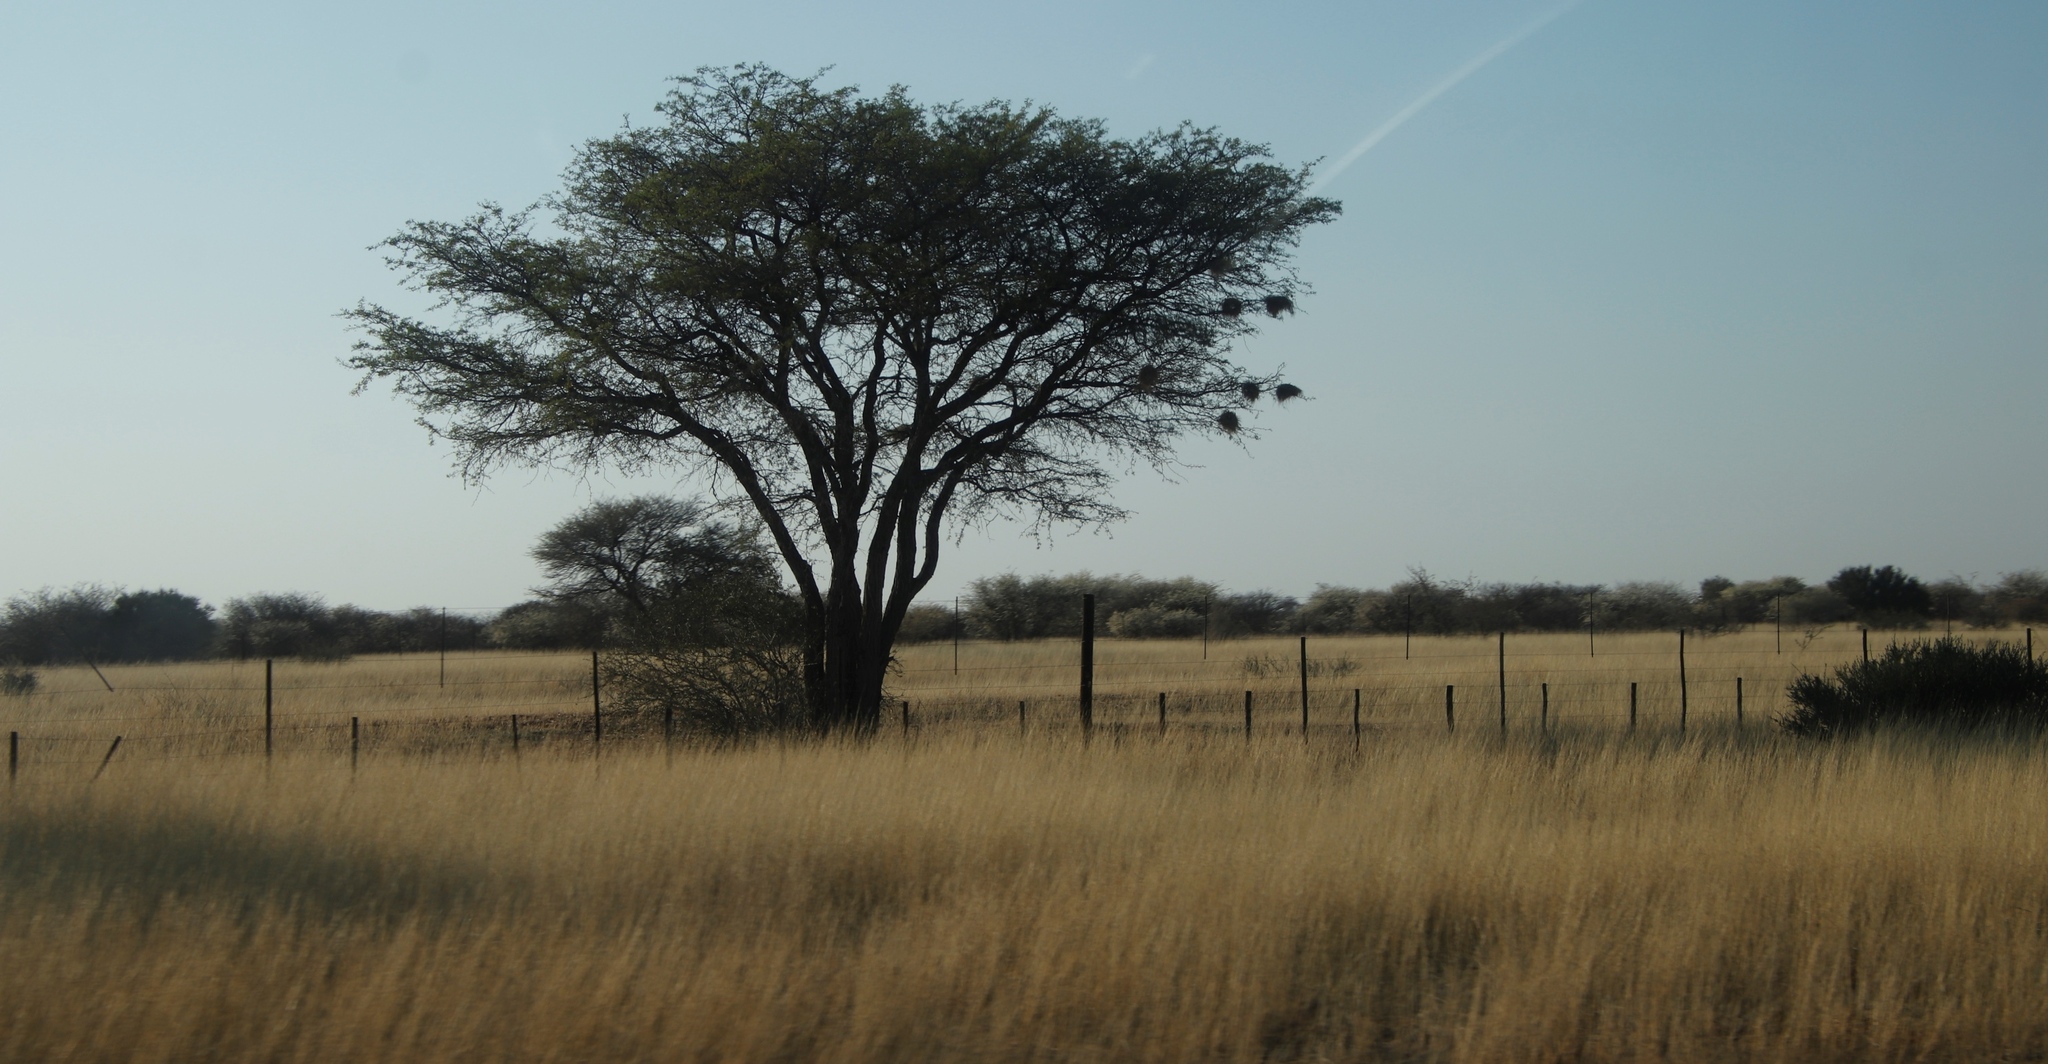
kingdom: Animalia
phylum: Chordata
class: Aves
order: Passeriformes
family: Passeridae
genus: Plocepasser
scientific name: Plocepasser mahali
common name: White-browed sparrow-weaver
